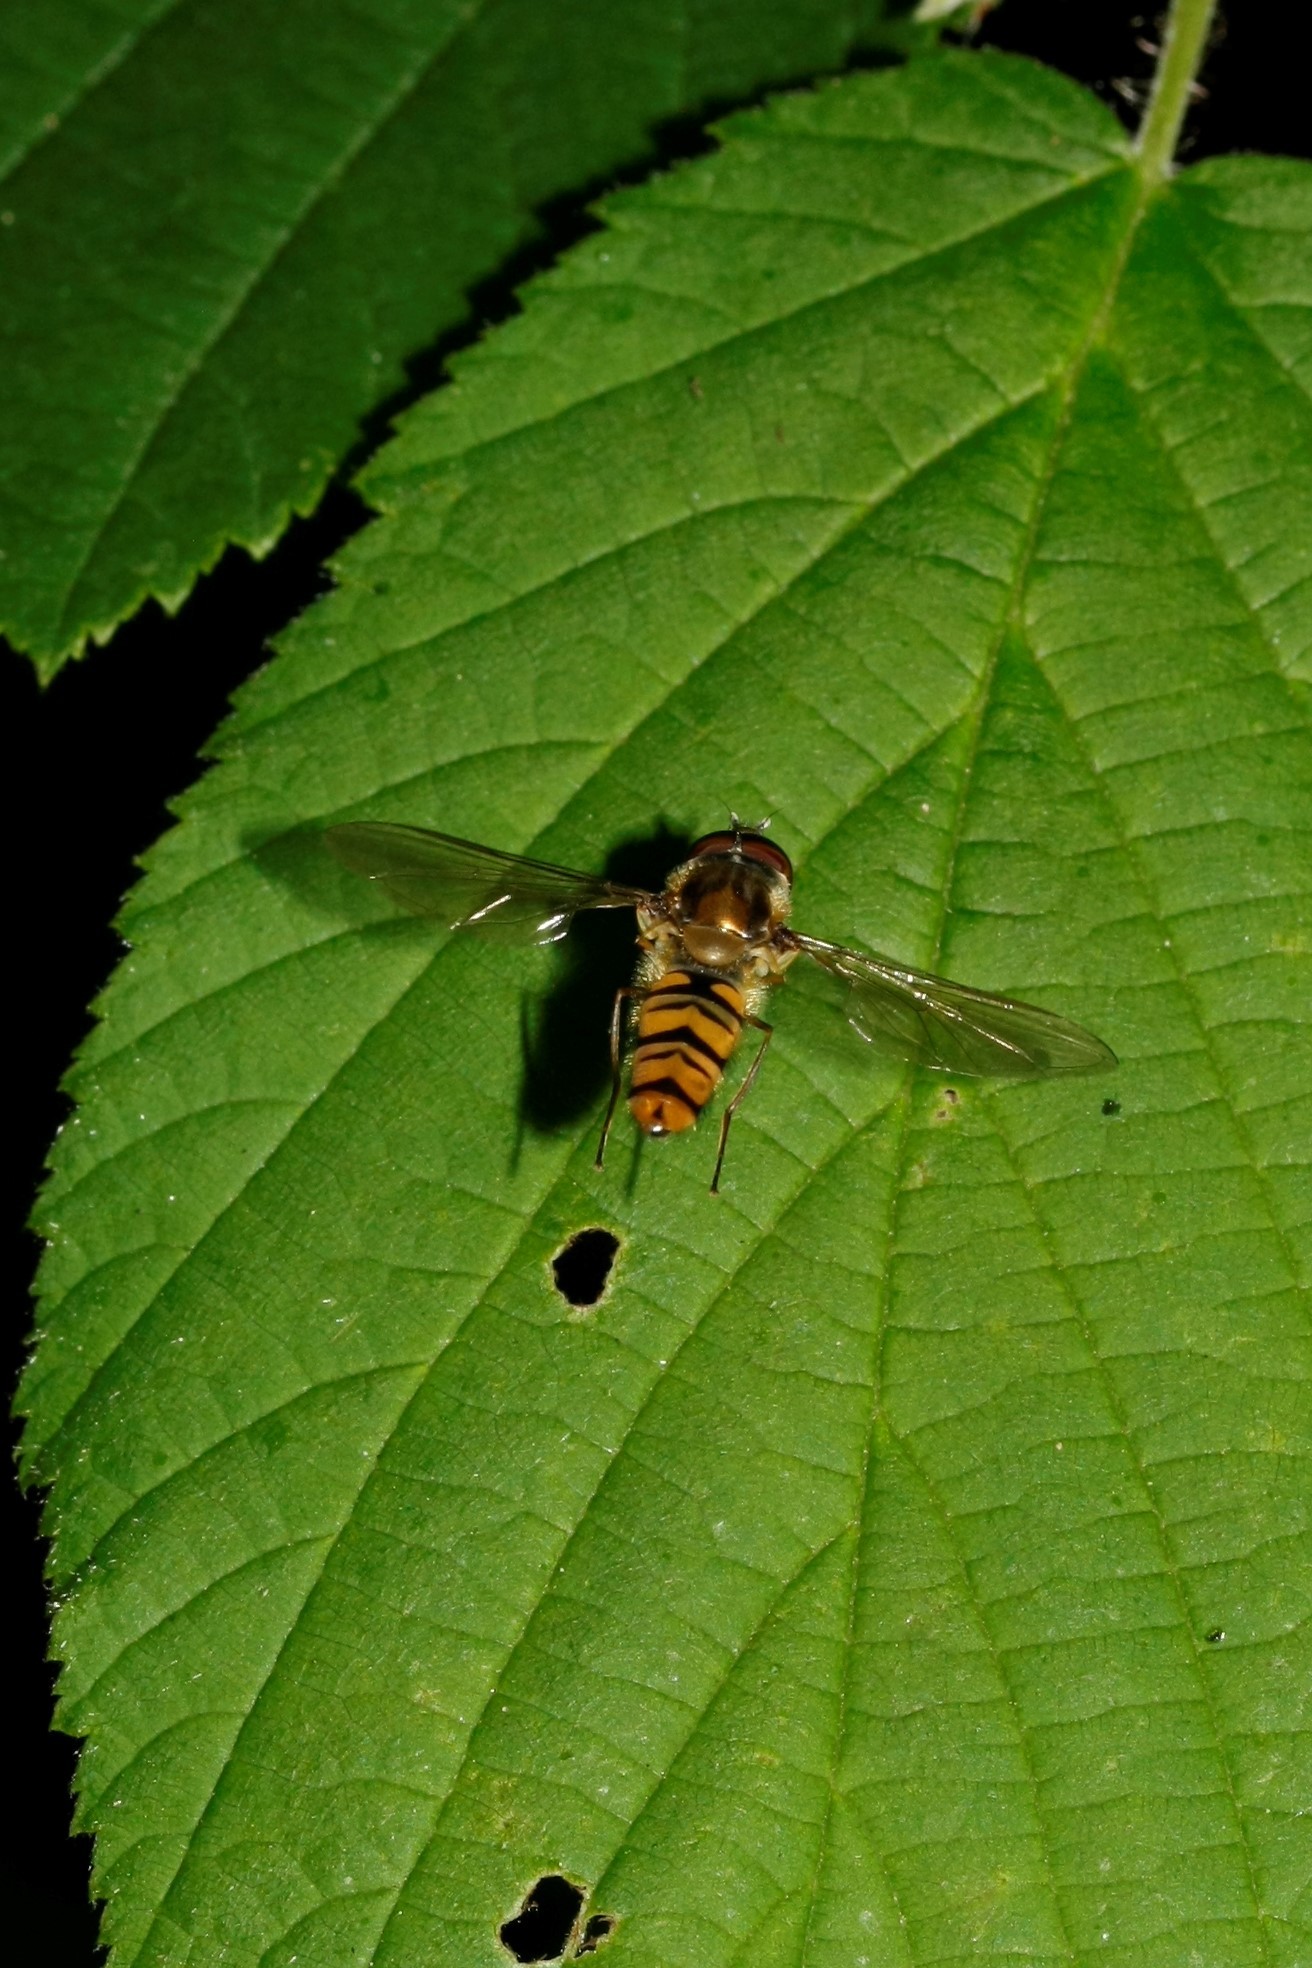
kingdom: Animalia
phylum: Arthropoda
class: Insecta
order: Diptera
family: Syrphidae
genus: Episyrphus
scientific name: Episyrphus balteatus
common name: Marmalade hoverfly
